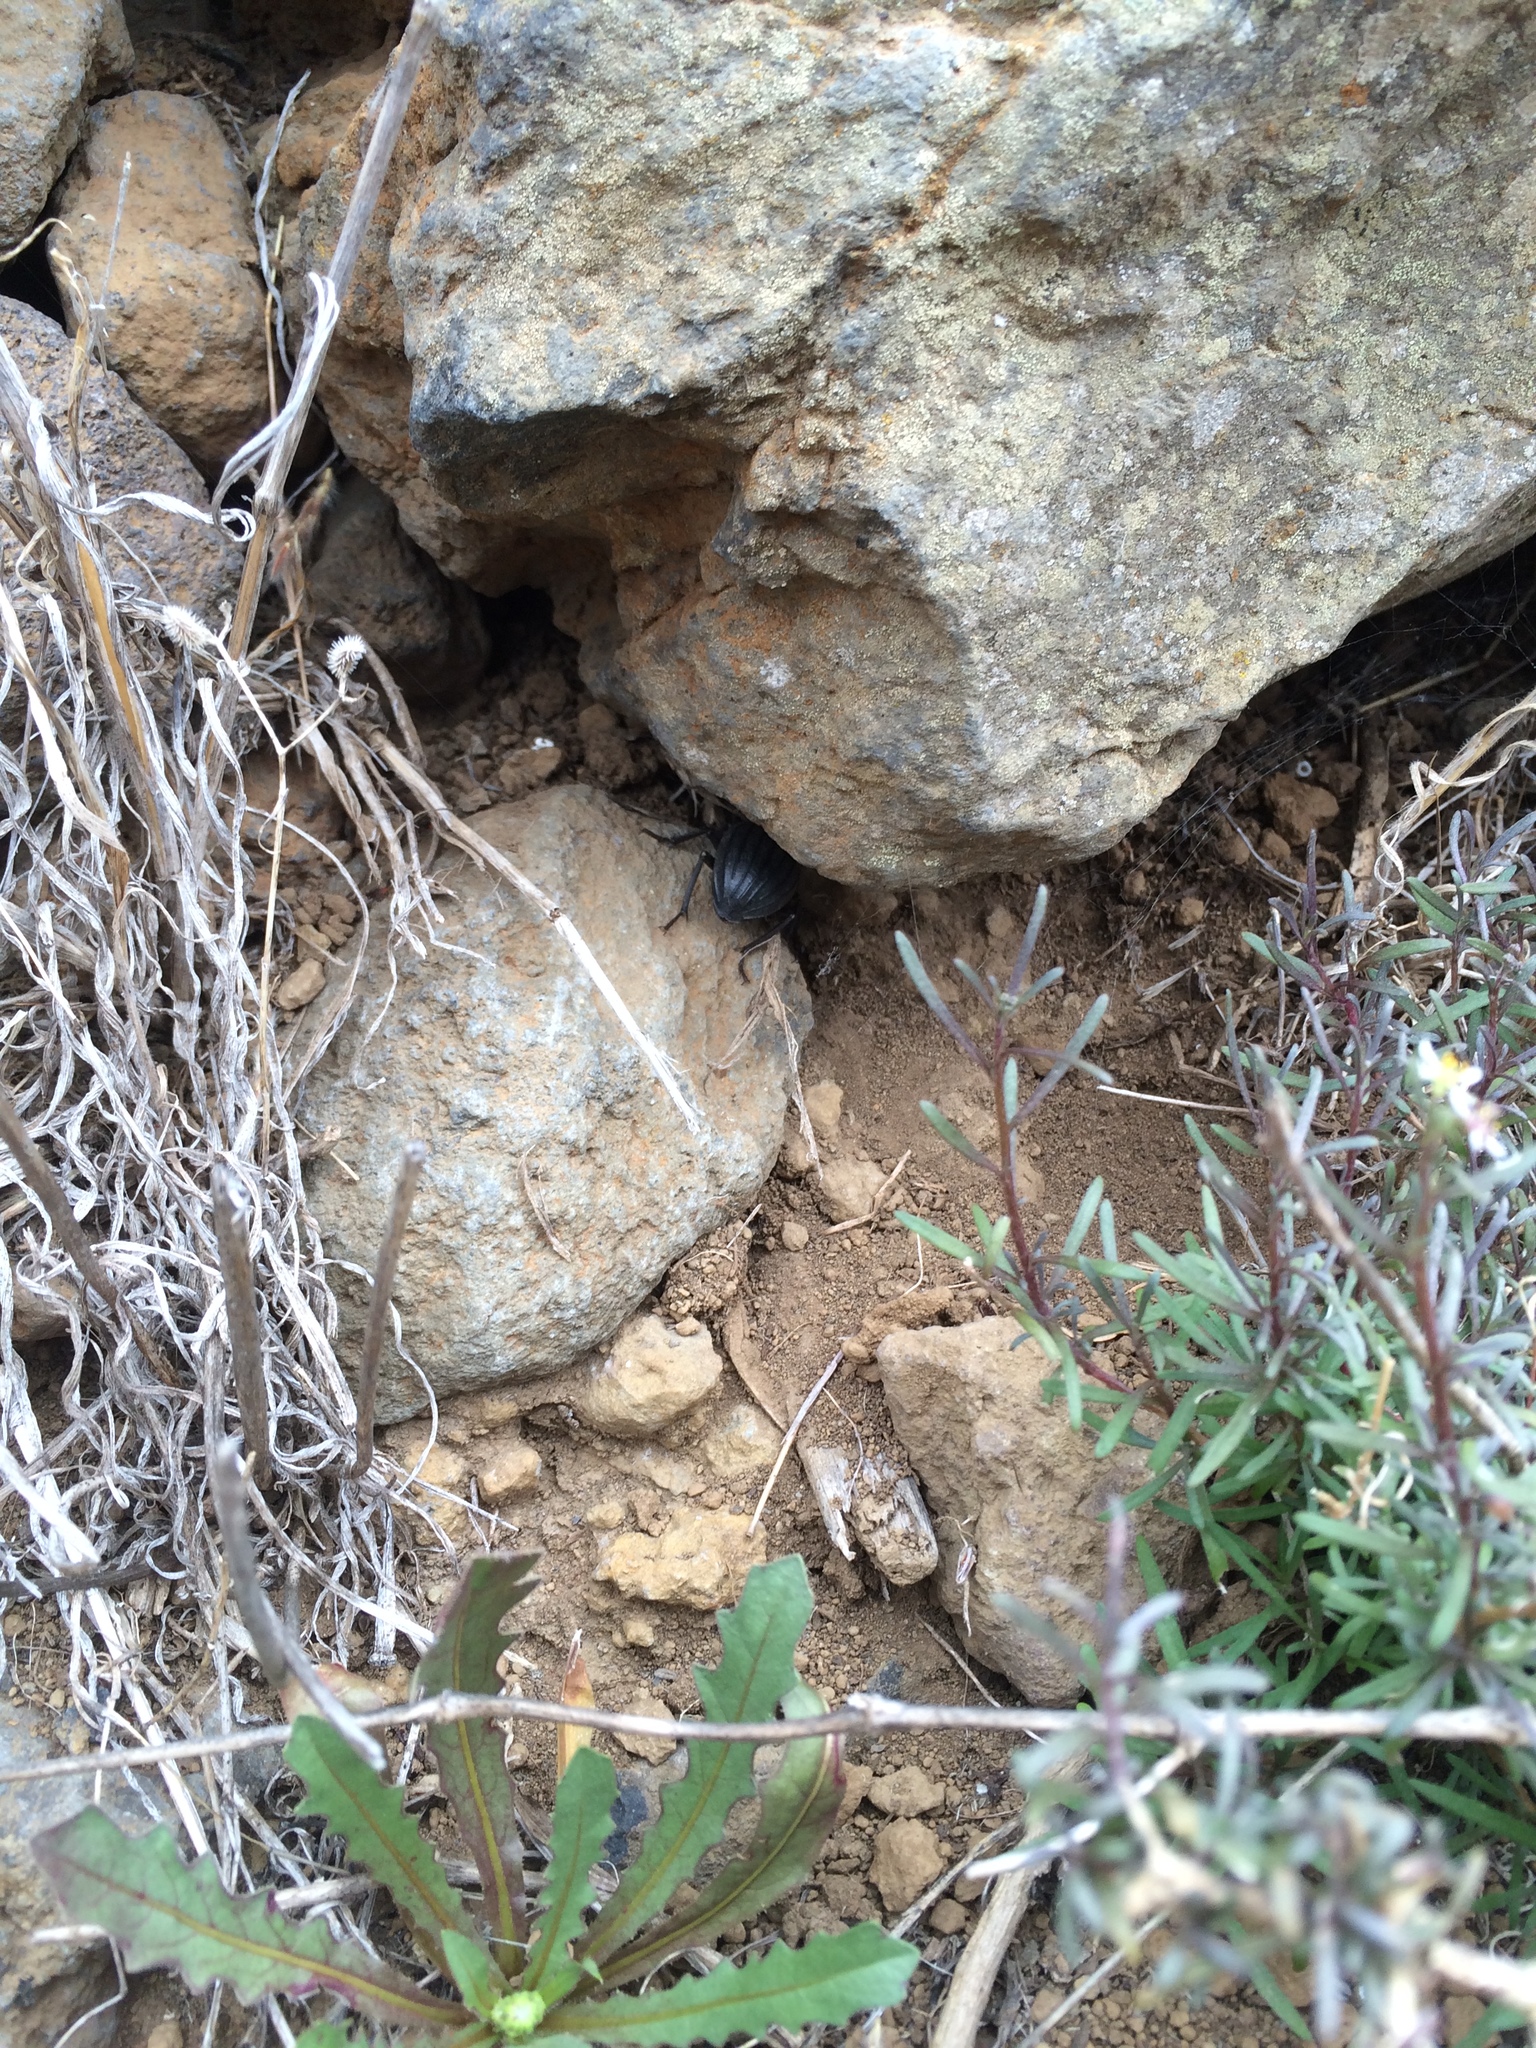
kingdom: Animalia
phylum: Arthropoda
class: Insecta
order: Coleoptera
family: Tenebrionidae
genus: Pimelia
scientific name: Pimelia laevigata
